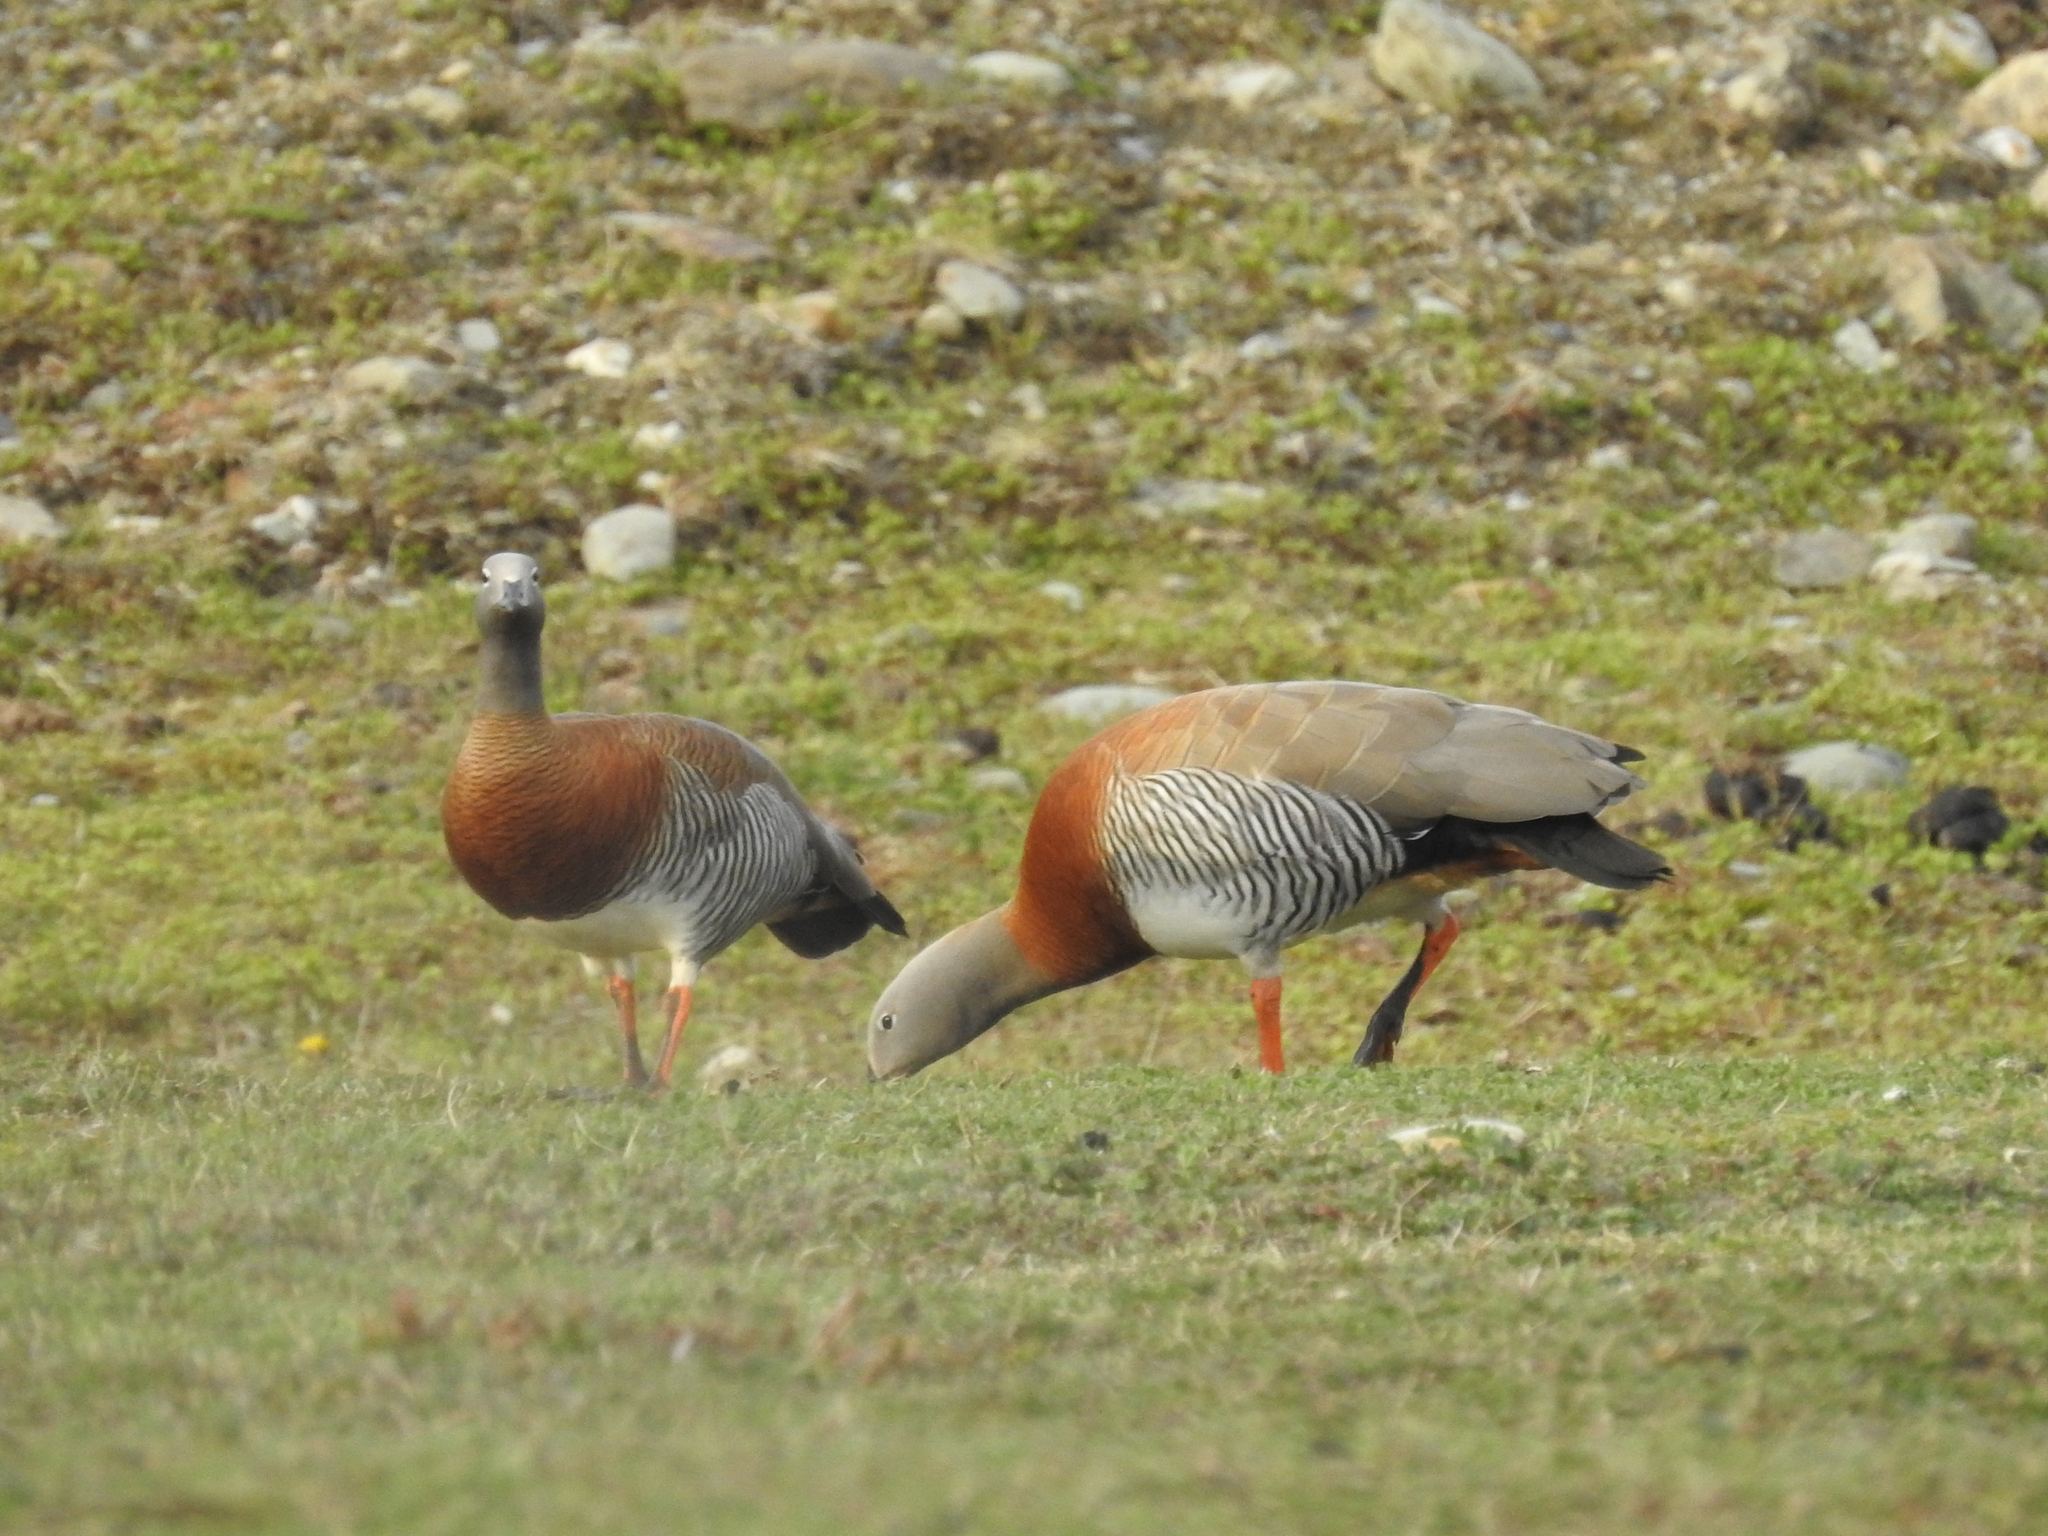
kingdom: Animalia
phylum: Chordata
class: Aves
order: Anseriformes
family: Anatidae
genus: Chloephaga
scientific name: Chloephaga poliocephala
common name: Ashy-headed goose
